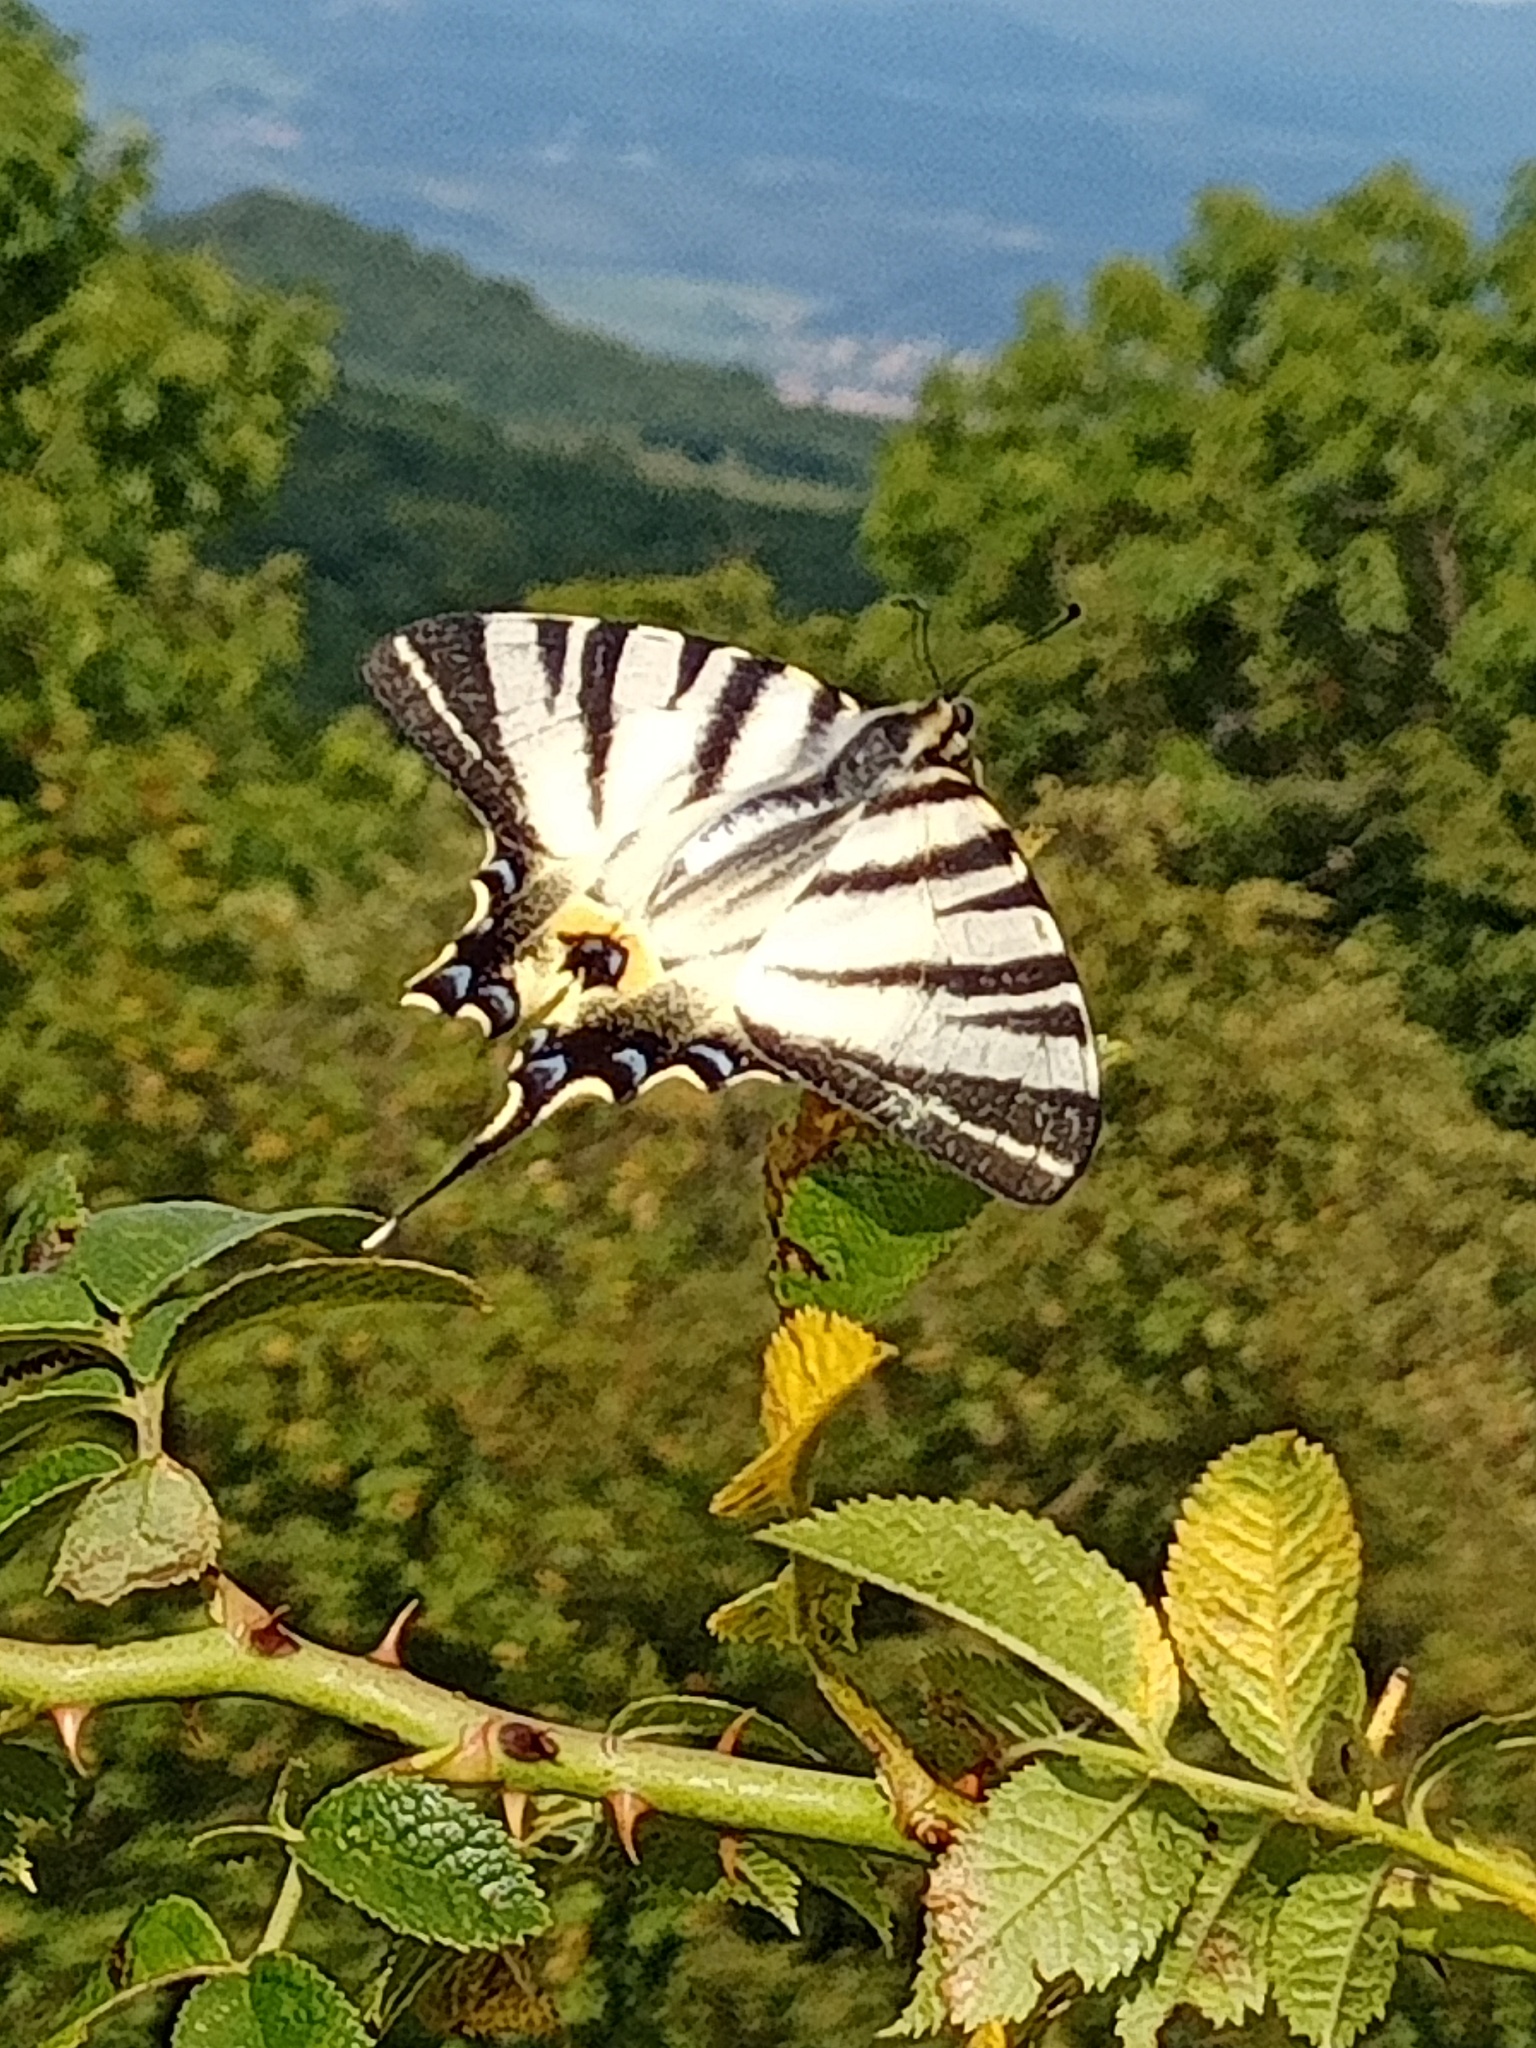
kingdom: Animalia
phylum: Arthropoda
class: Insecta
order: Lepidoptera
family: Papilionidae
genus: Iphiclides
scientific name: Iphiclides podalirius
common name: Scarce swallowtail
